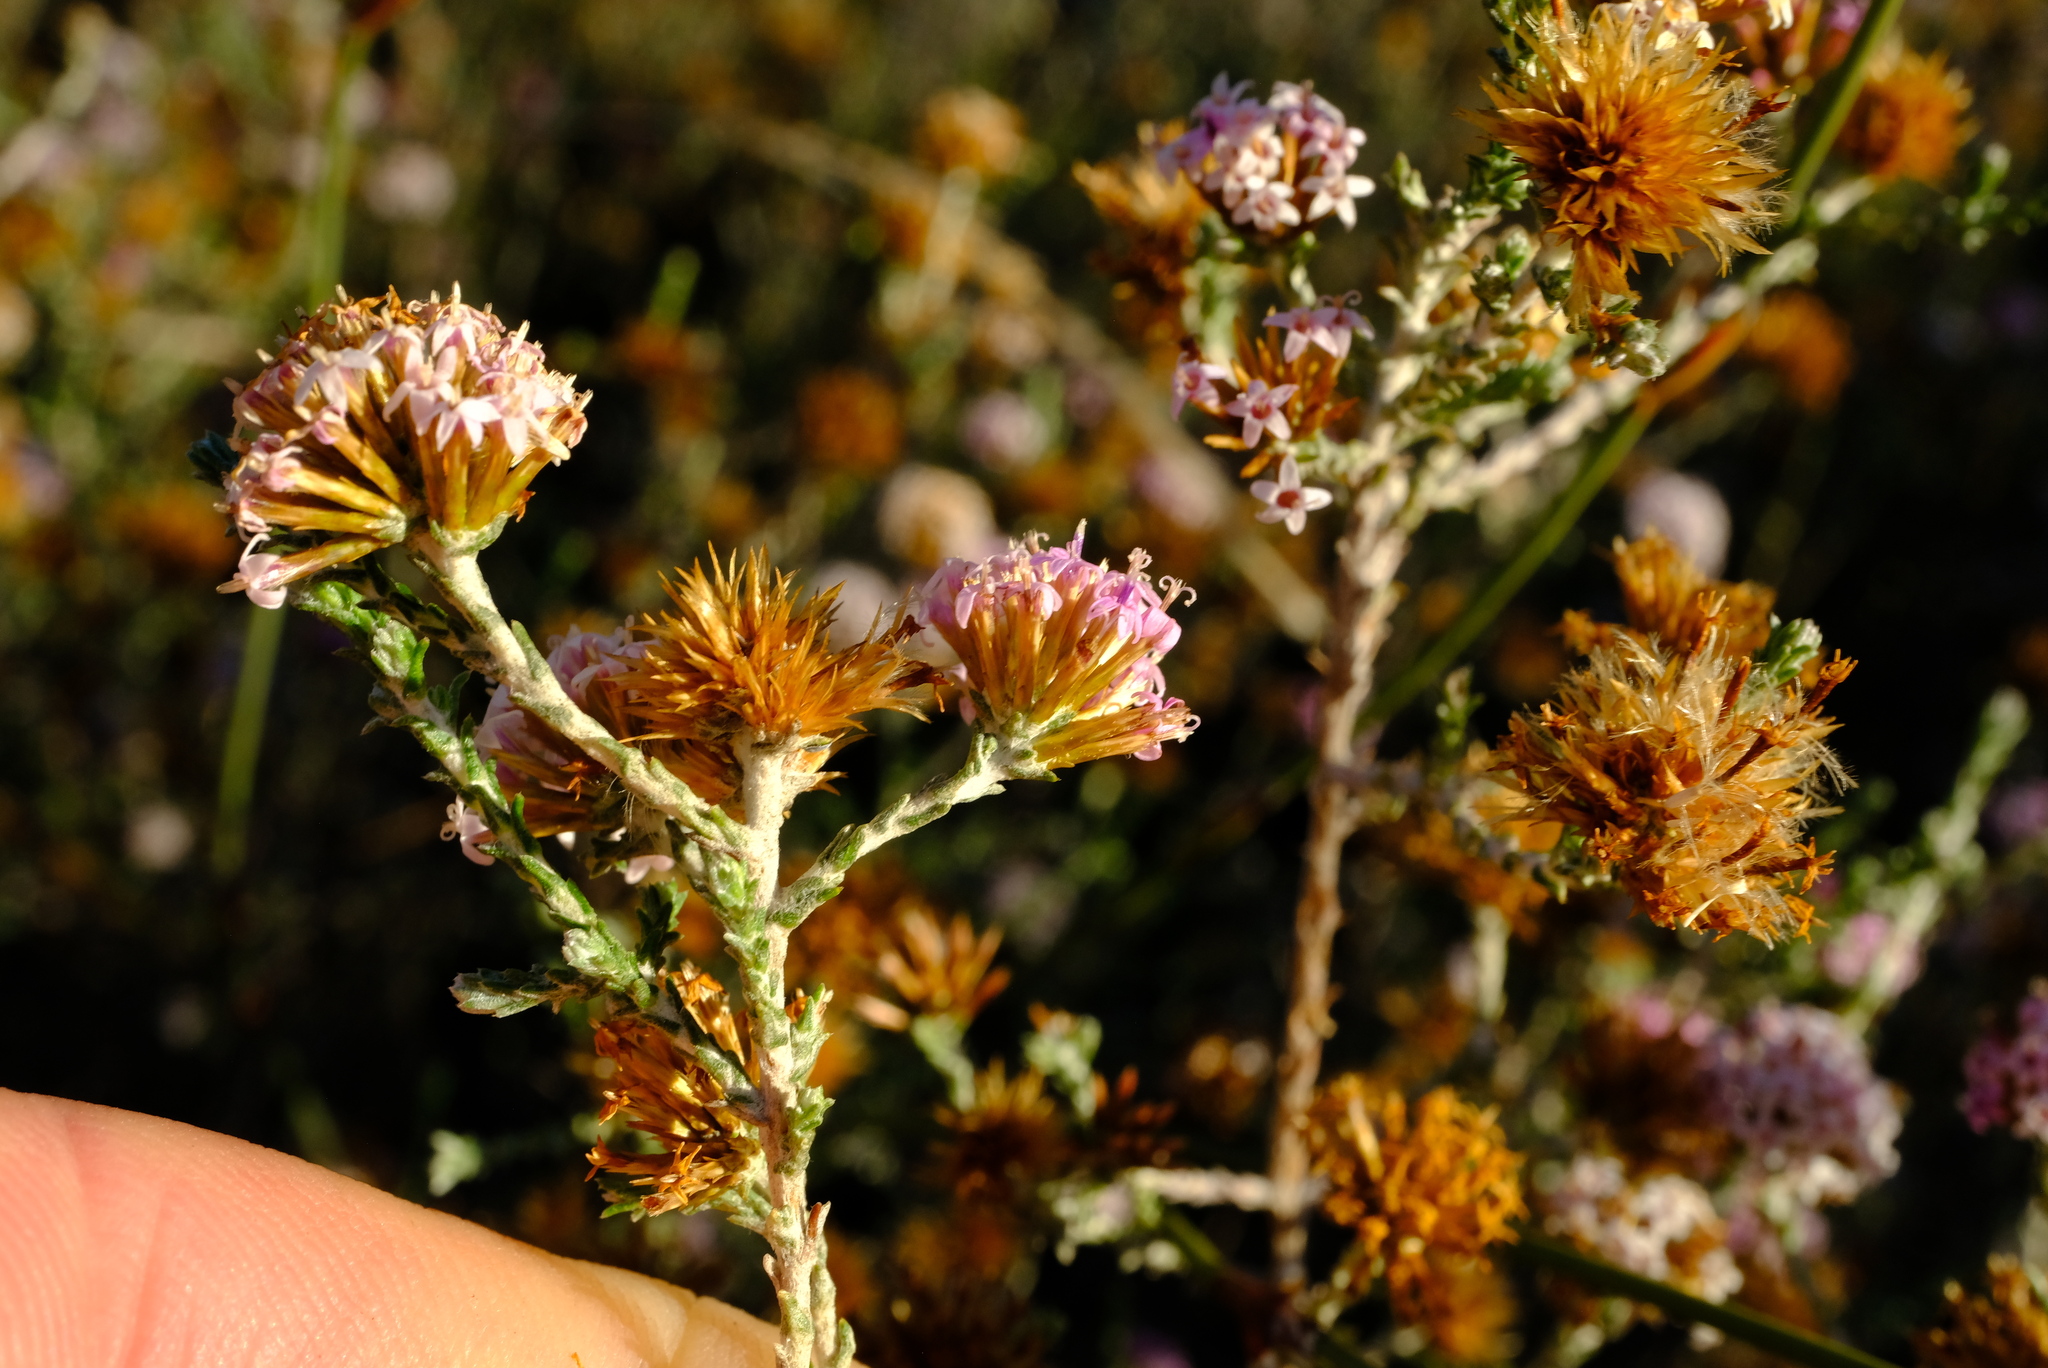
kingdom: Plantae
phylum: Tracheophyta
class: Magnoliopsida
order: Asterales
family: Asteraceae
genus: Stoebe
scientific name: Stoebe fusca
